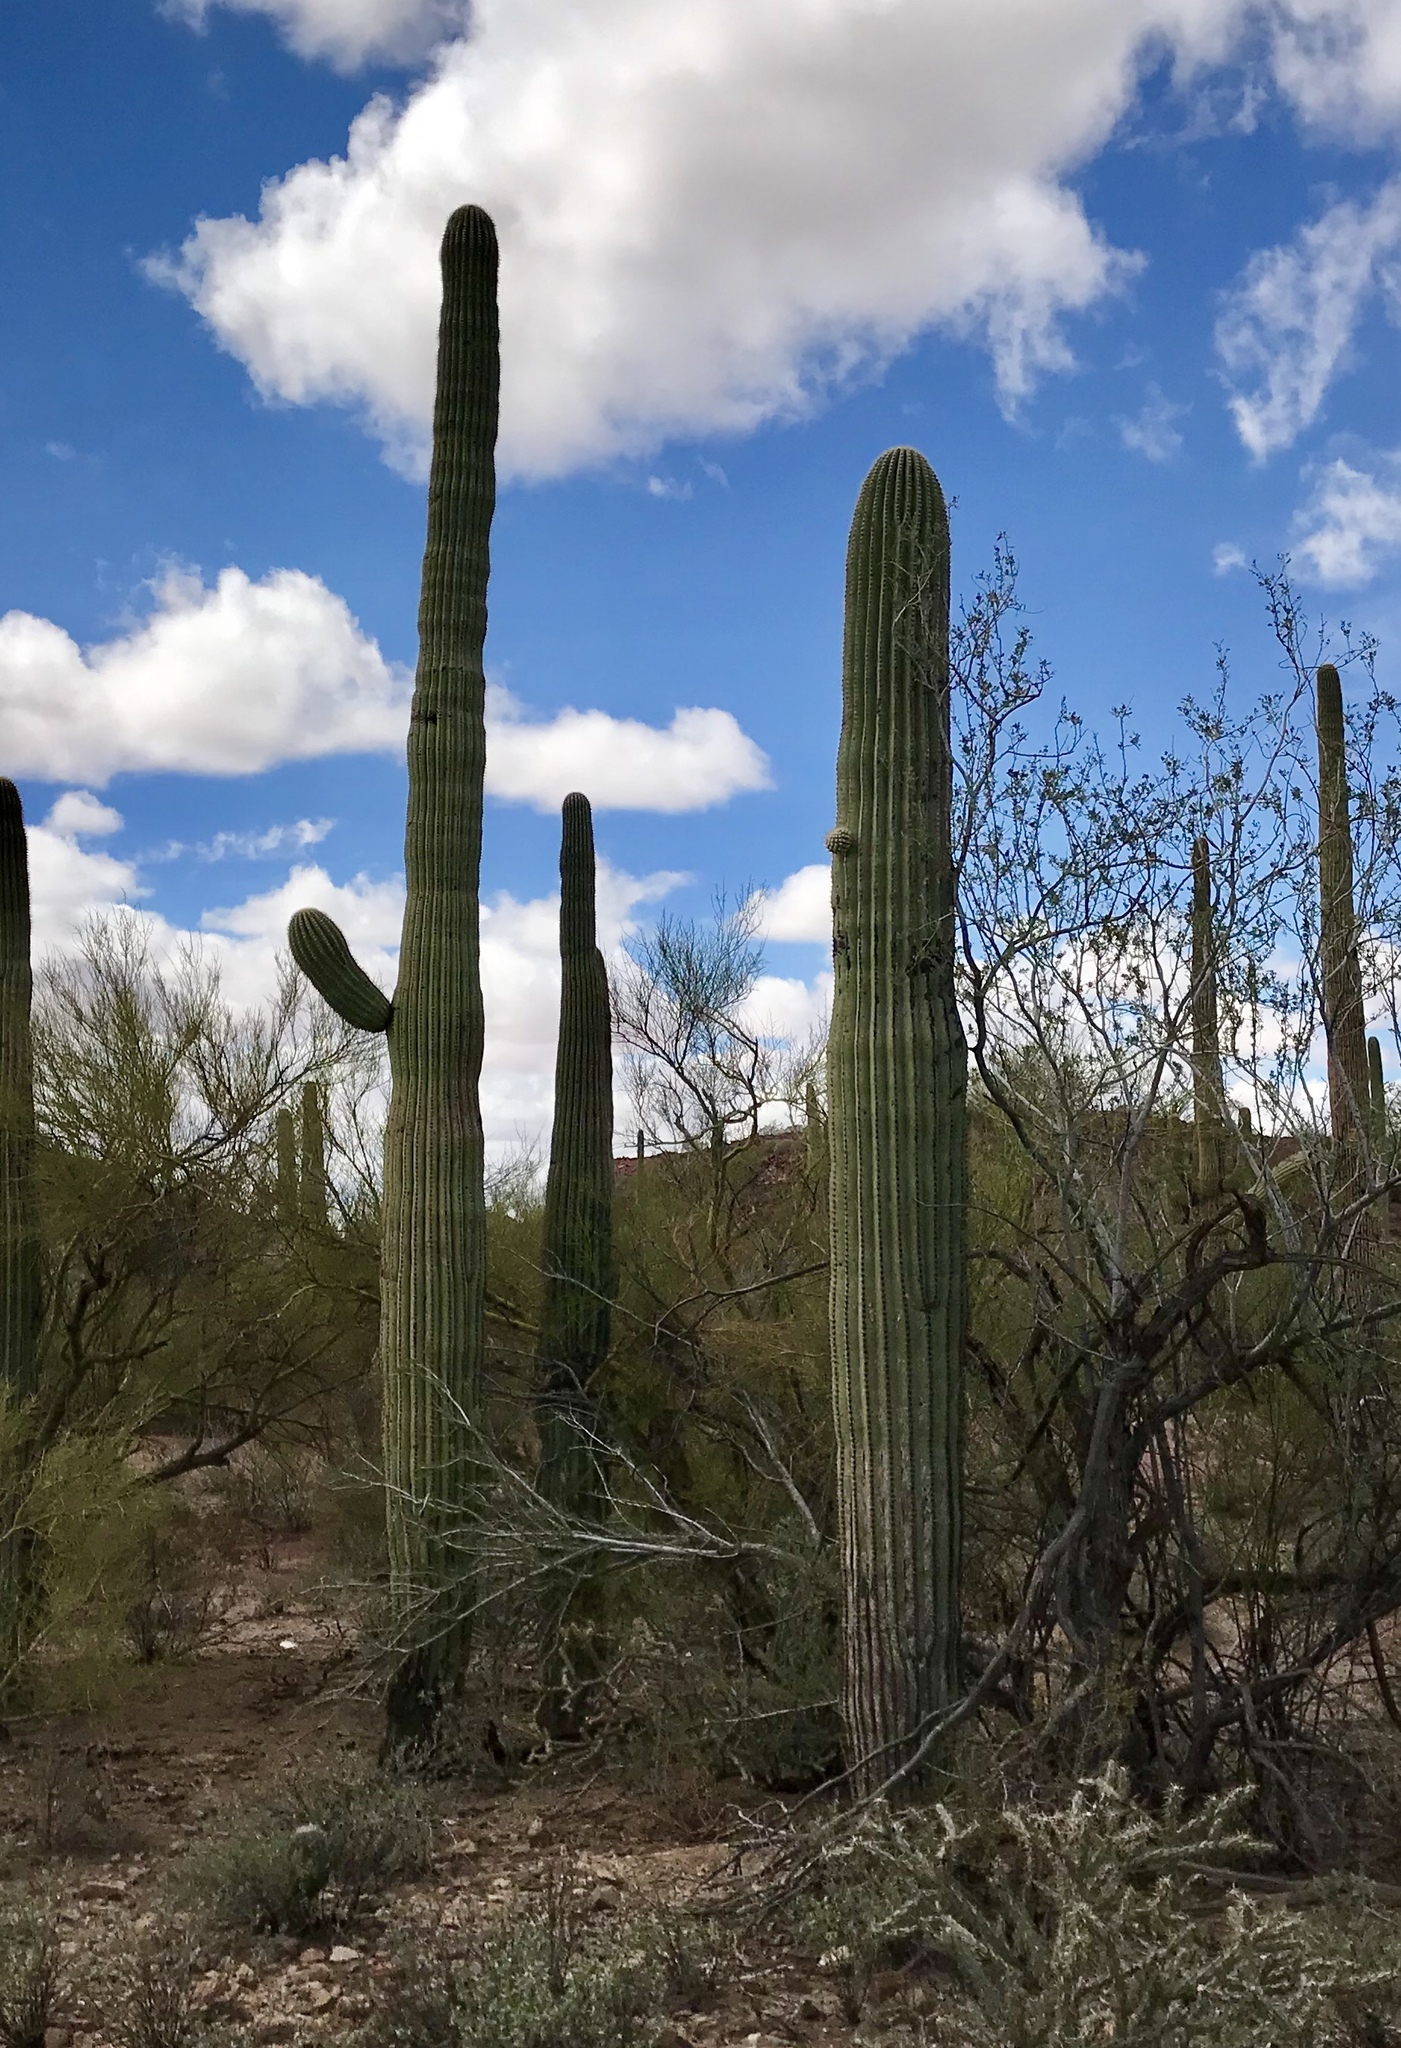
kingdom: Plantae
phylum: Tracheophyta
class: Magnoliopsida
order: Caryophyllales
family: Cactaceae
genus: Carnegiea
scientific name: Carnegiea gigantea
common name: Saguaro
